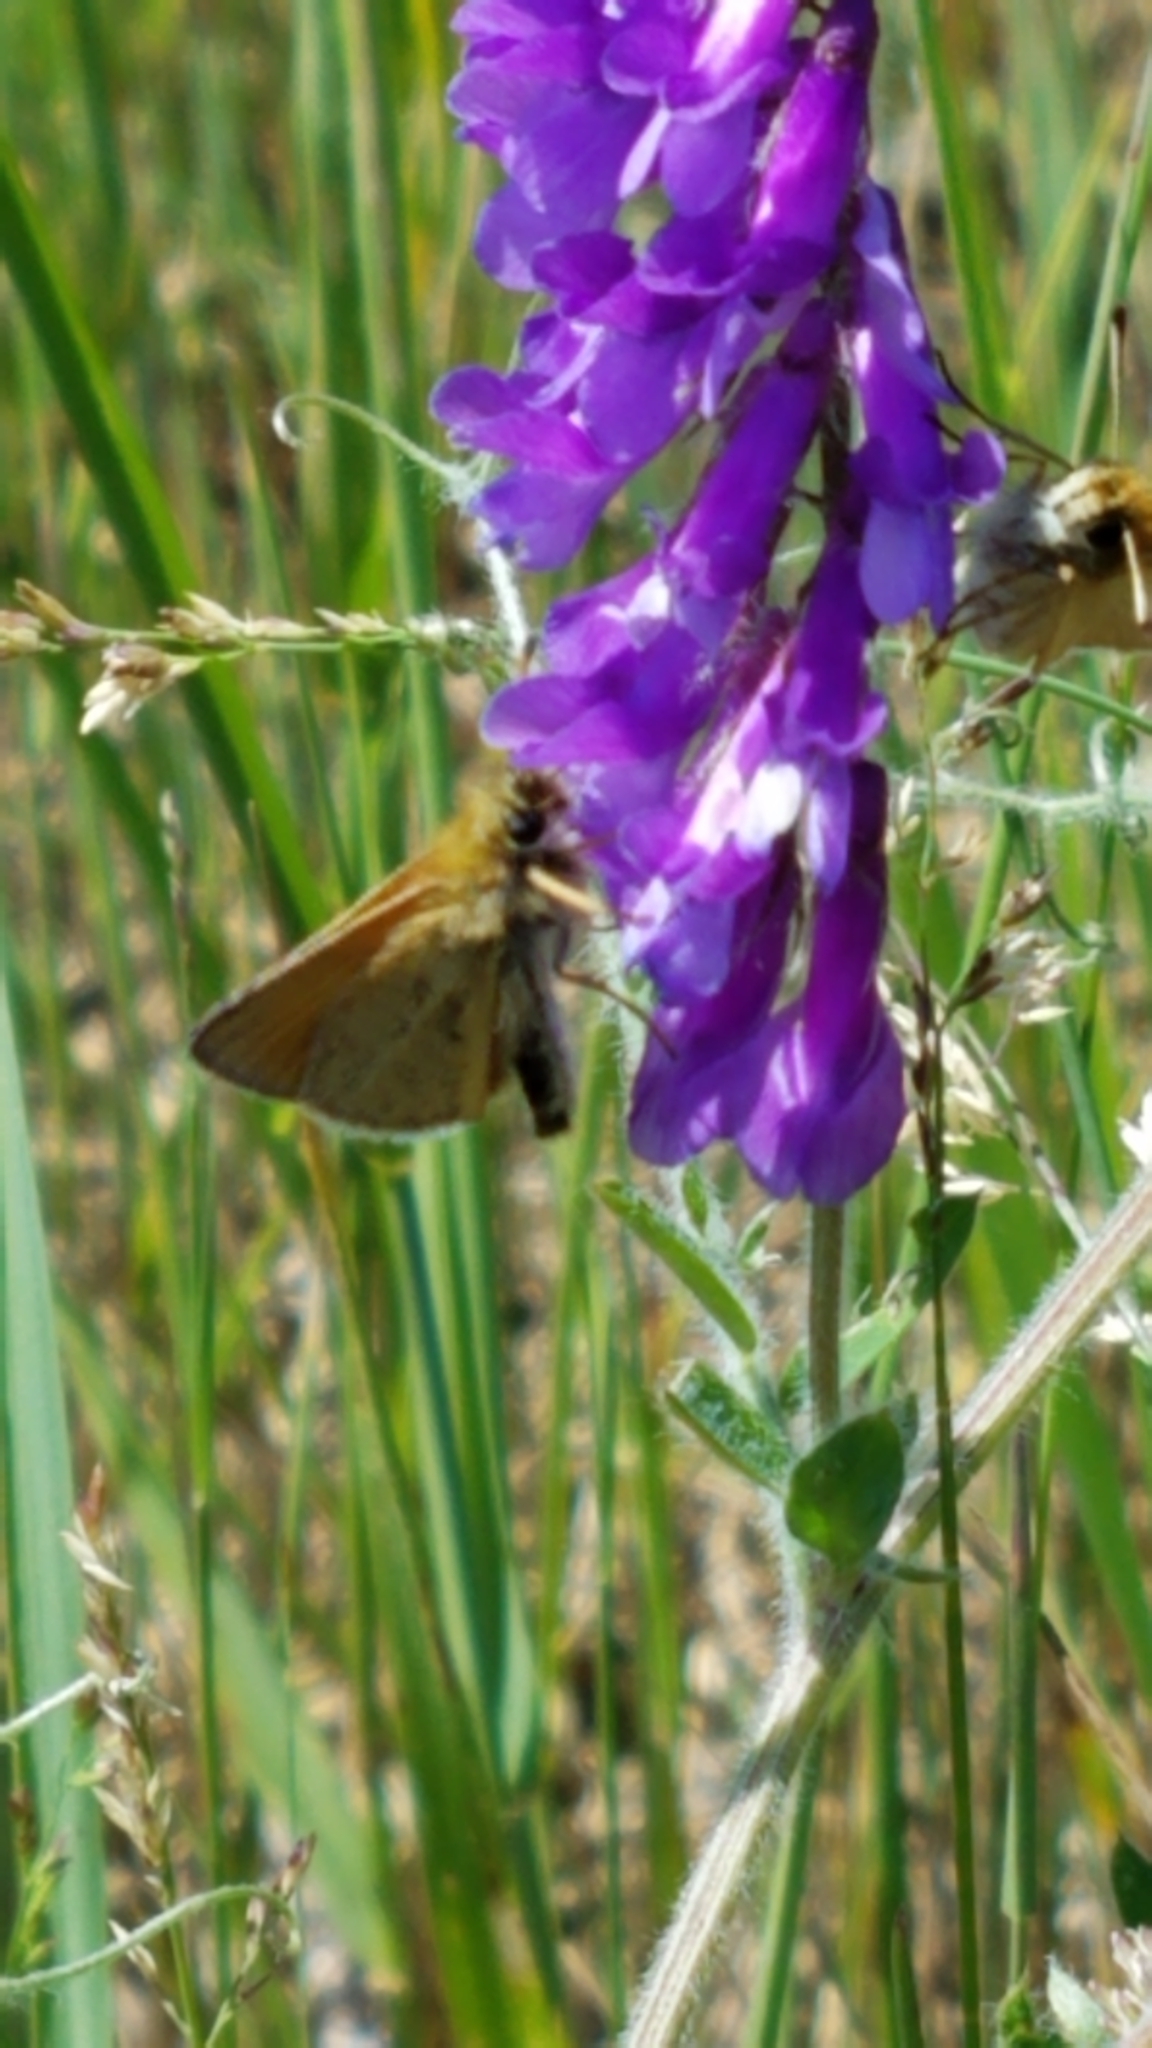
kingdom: Animalia
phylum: Arthropoda
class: Insecta
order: Lepidoptera
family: Hesperiidae
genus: Thymelicus
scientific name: Thymelicus lineola
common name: Essex skipper
